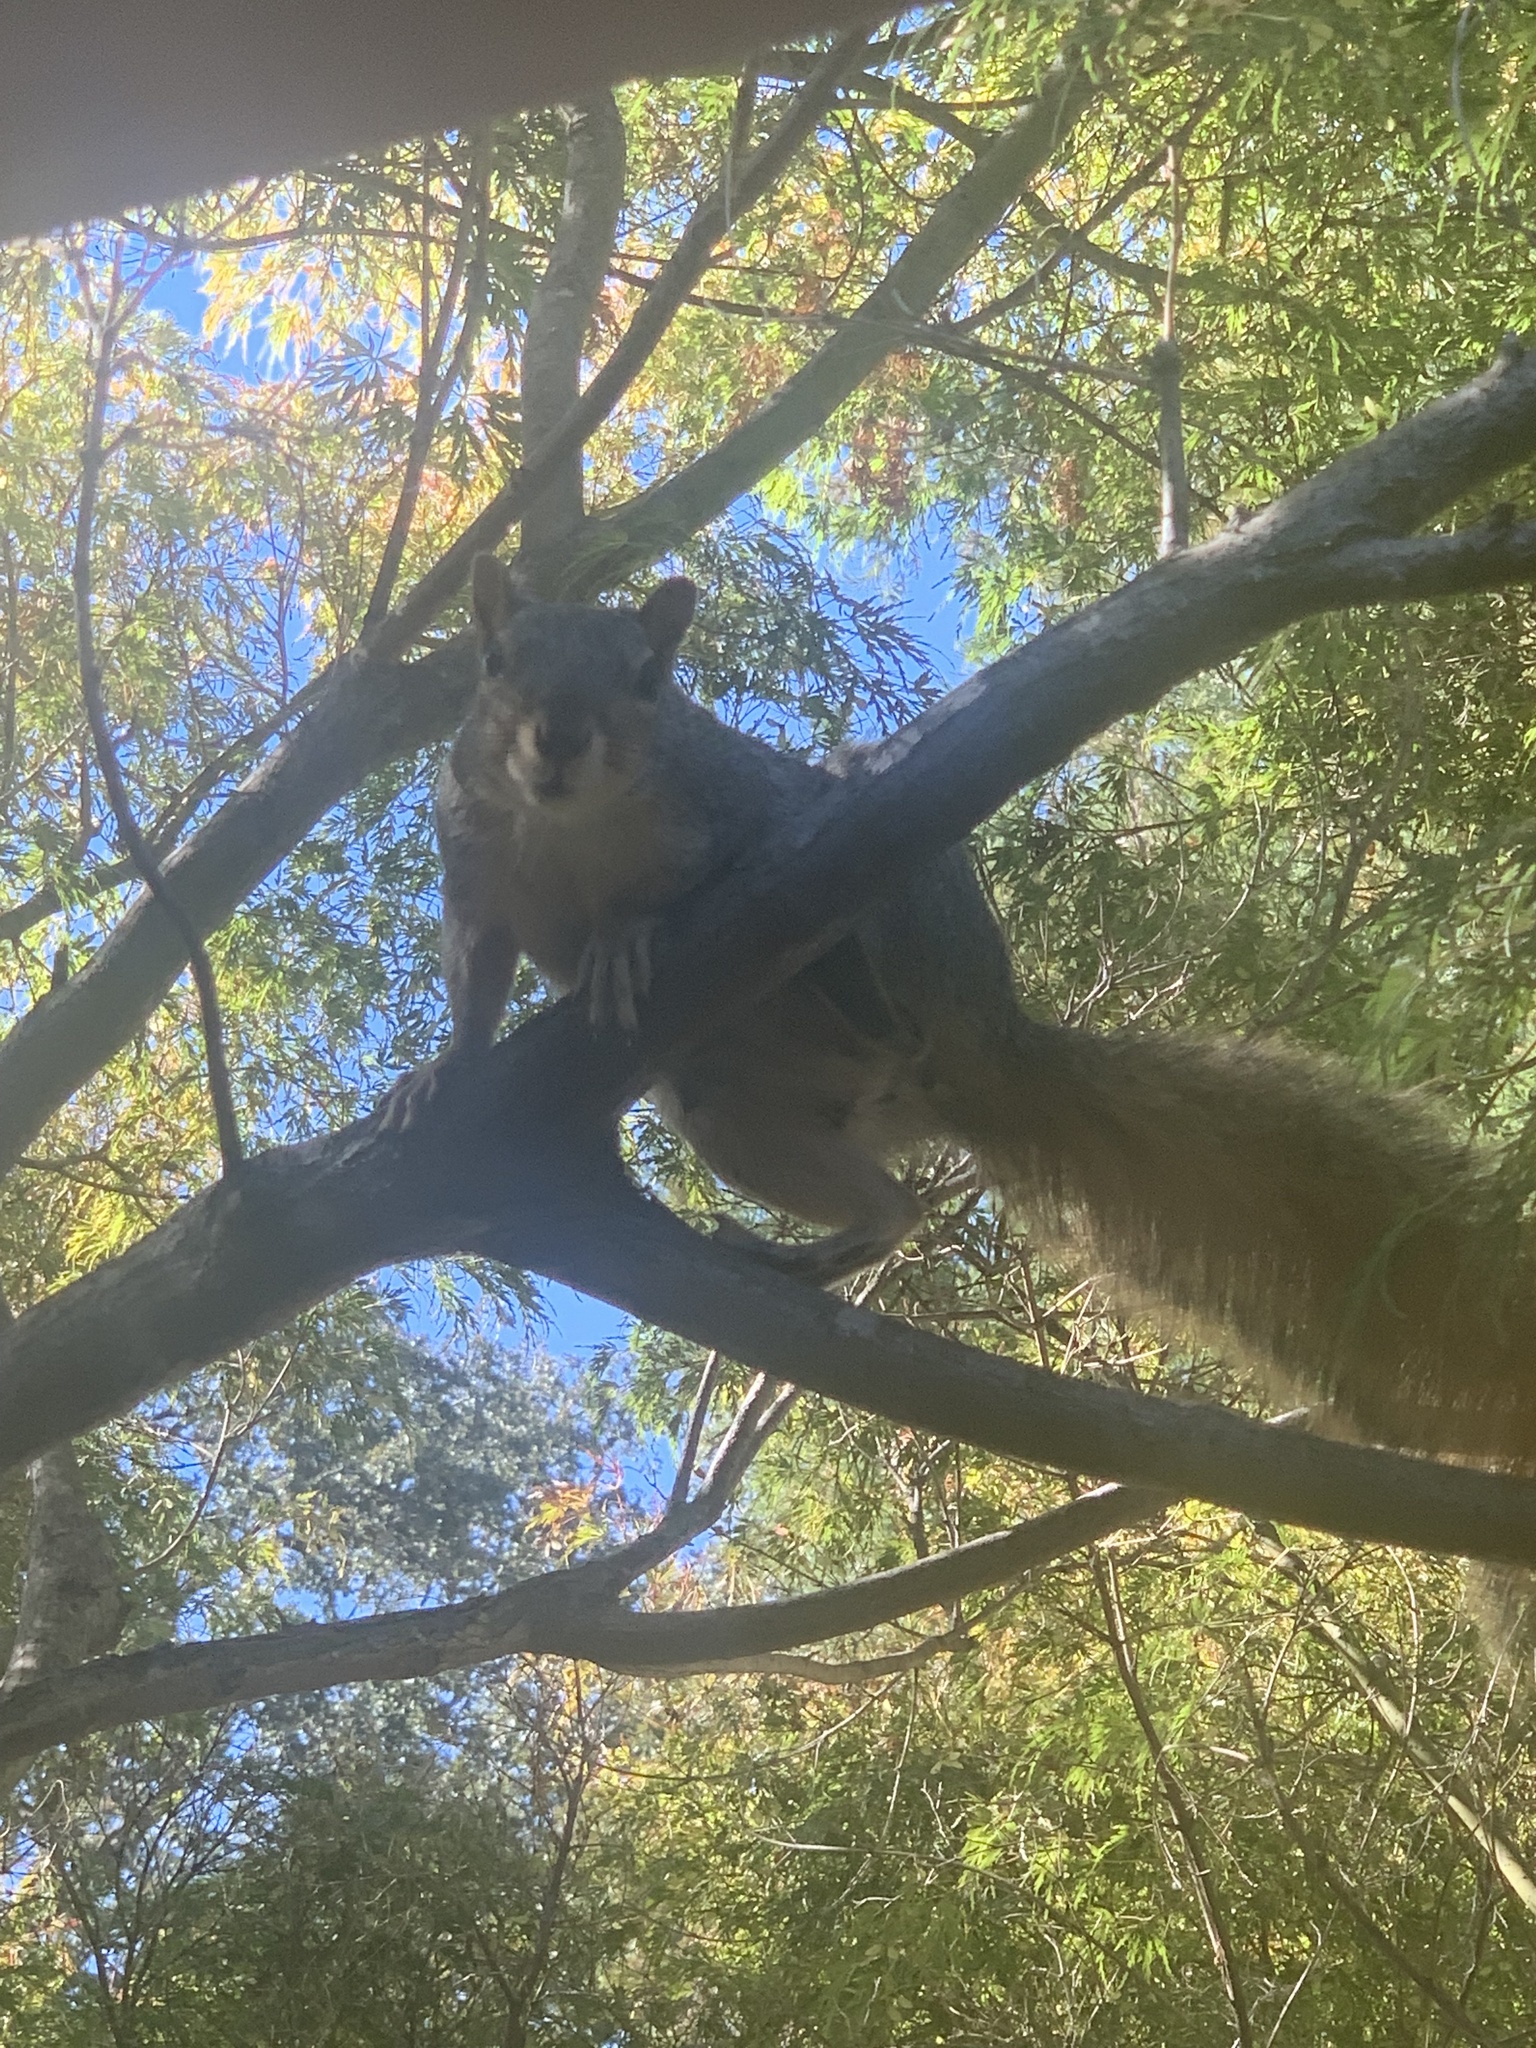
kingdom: Animalia
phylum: Chordata
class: Mammalia
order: Rodentia
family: Sciuridae
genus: Sciurus
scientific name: Sciurus niger
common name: Fox squirrel
